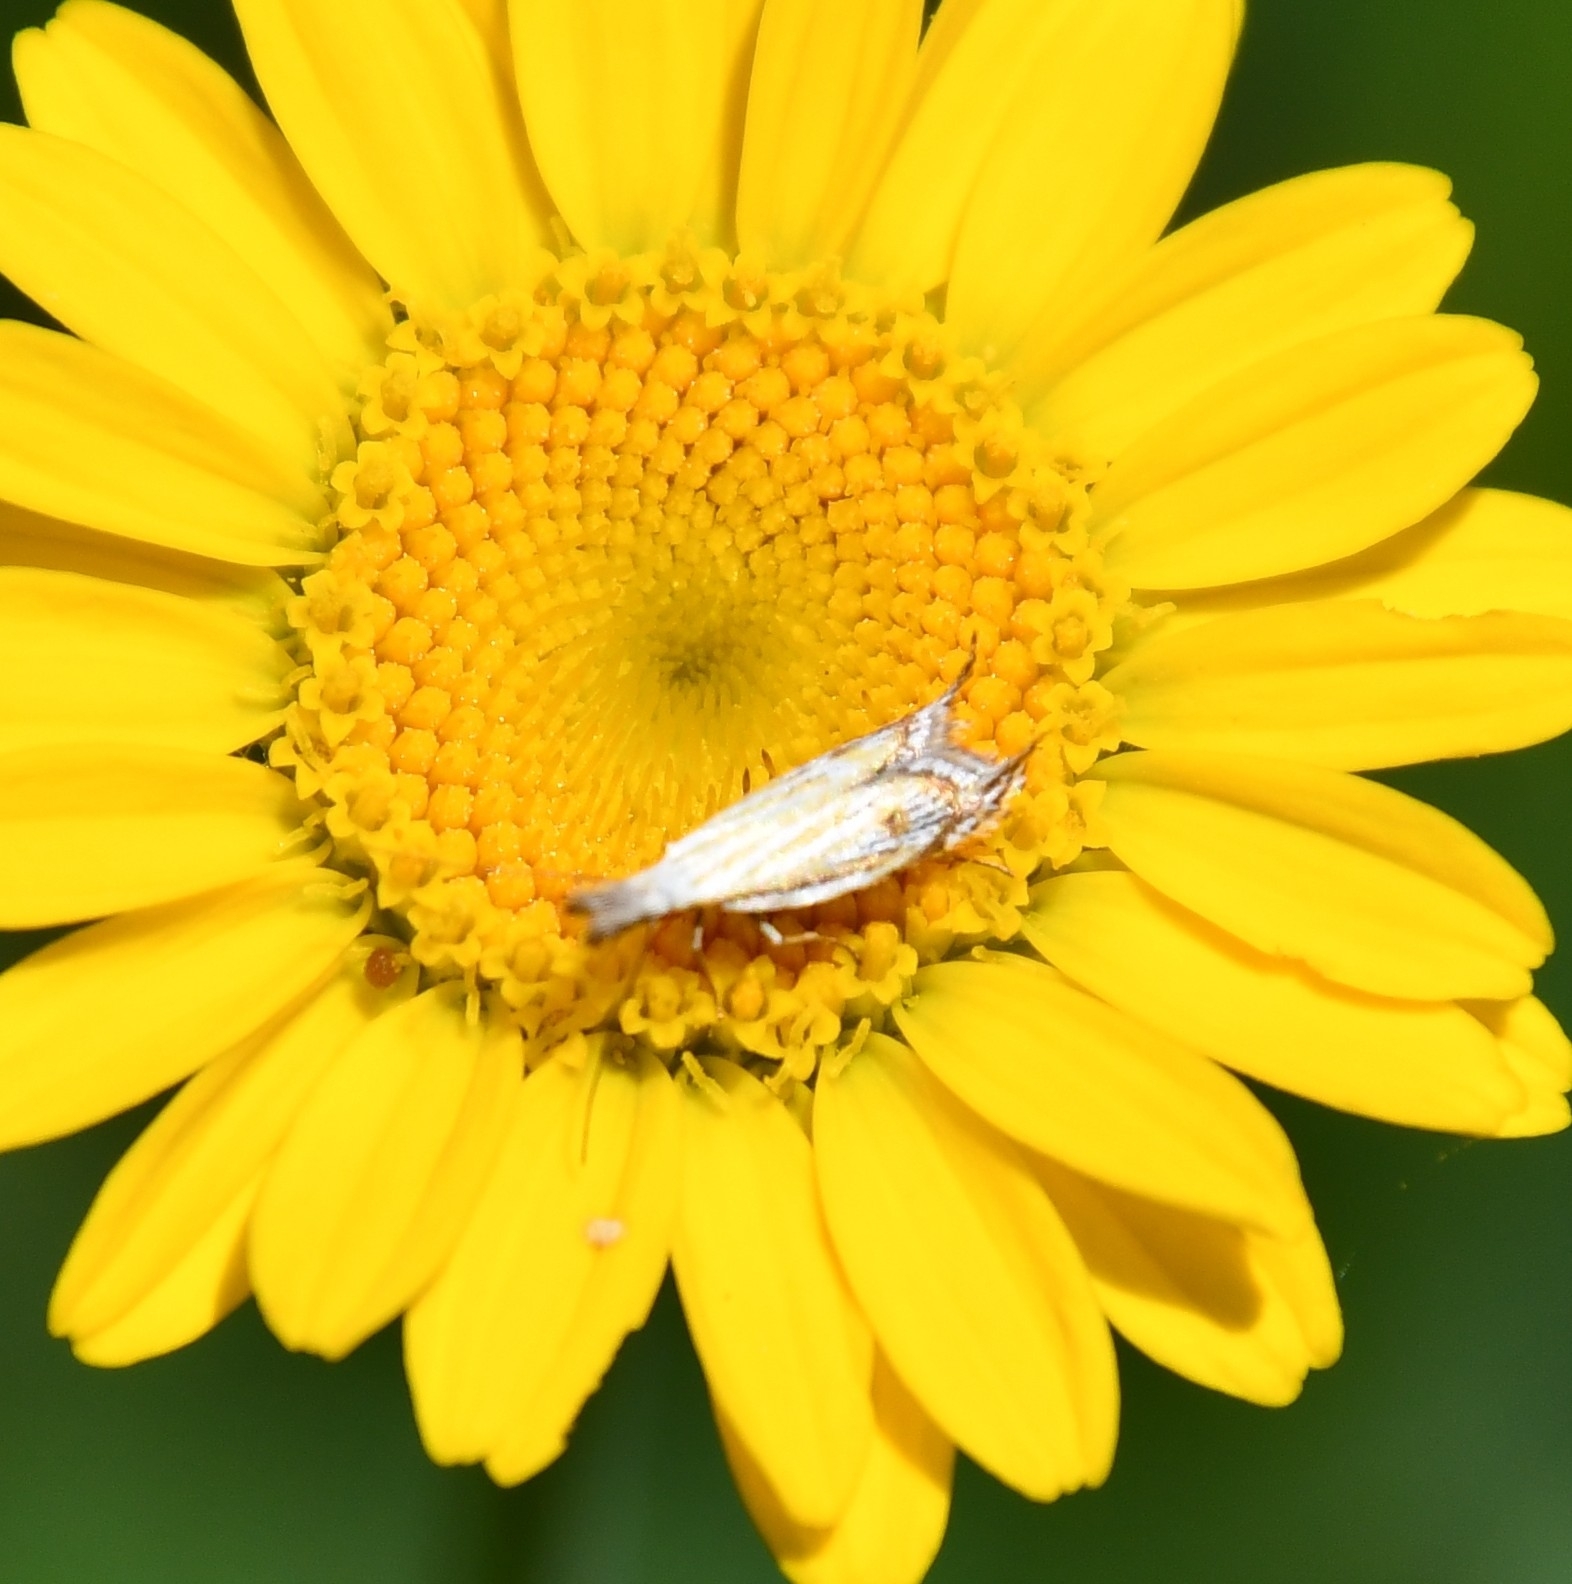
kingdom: Animalia
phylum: Arthropoda
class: Insecta
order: Lepidoptera
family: Oecophoridae
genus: Pleurota
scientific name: Pleurota huebneri
